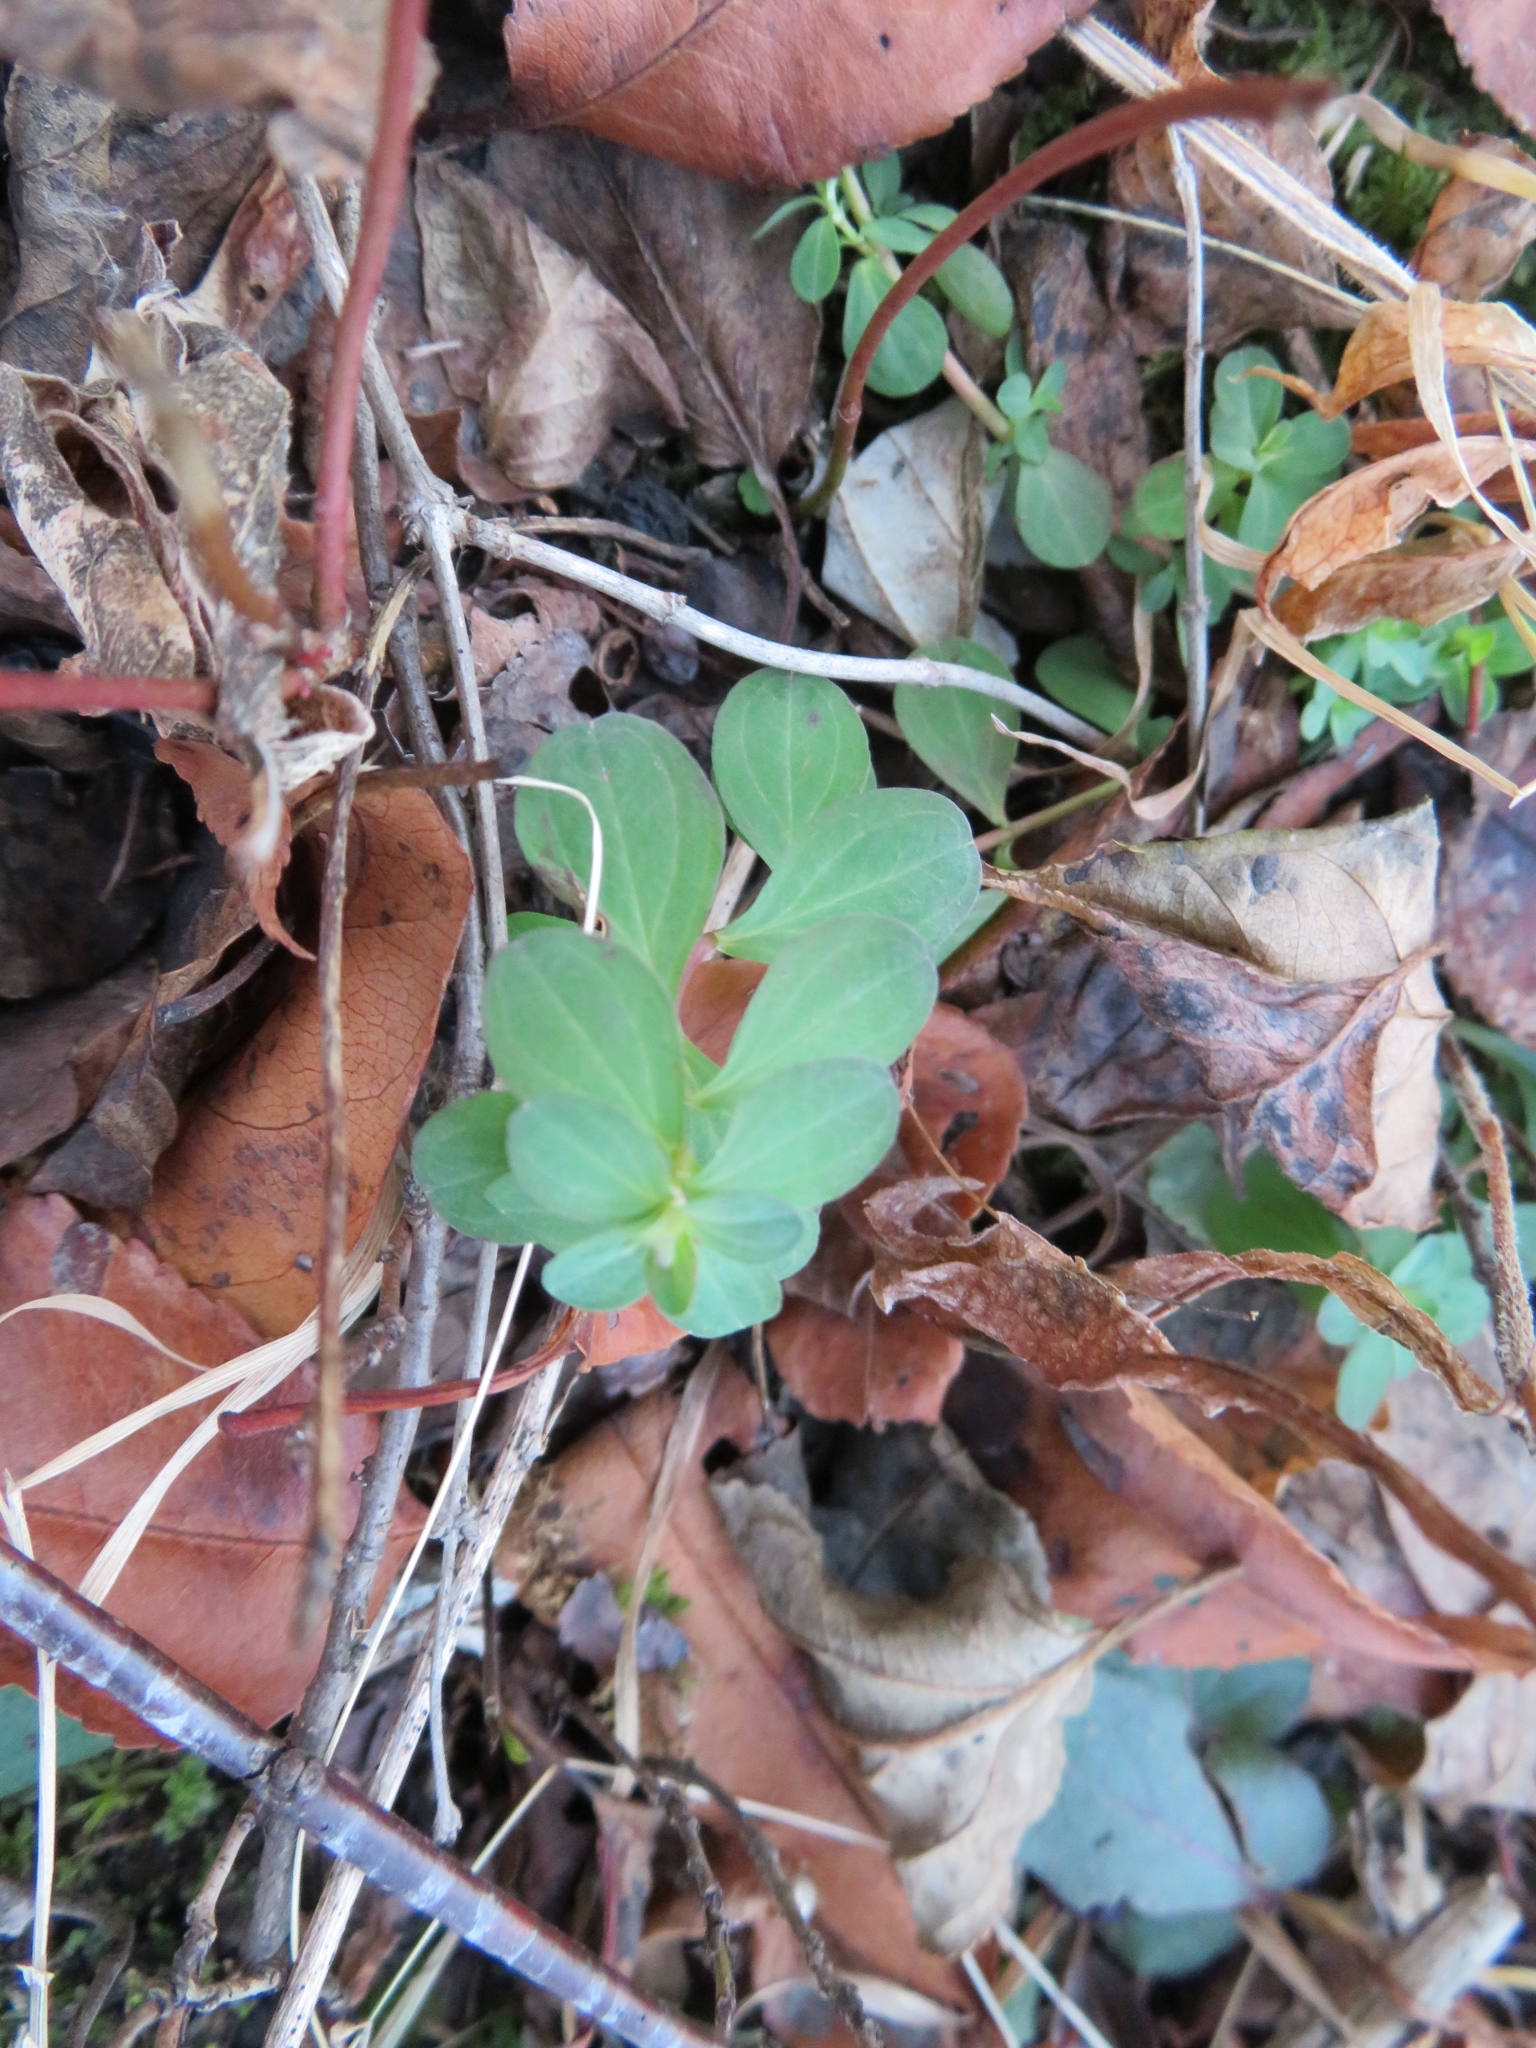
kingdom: Plantae
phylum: Tracheophyta
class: Magnoliopsida
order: Malpighiales
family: Hypericaceae
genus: Hypericum
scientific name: Hypericum perforatum
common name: Common st. johnswort
